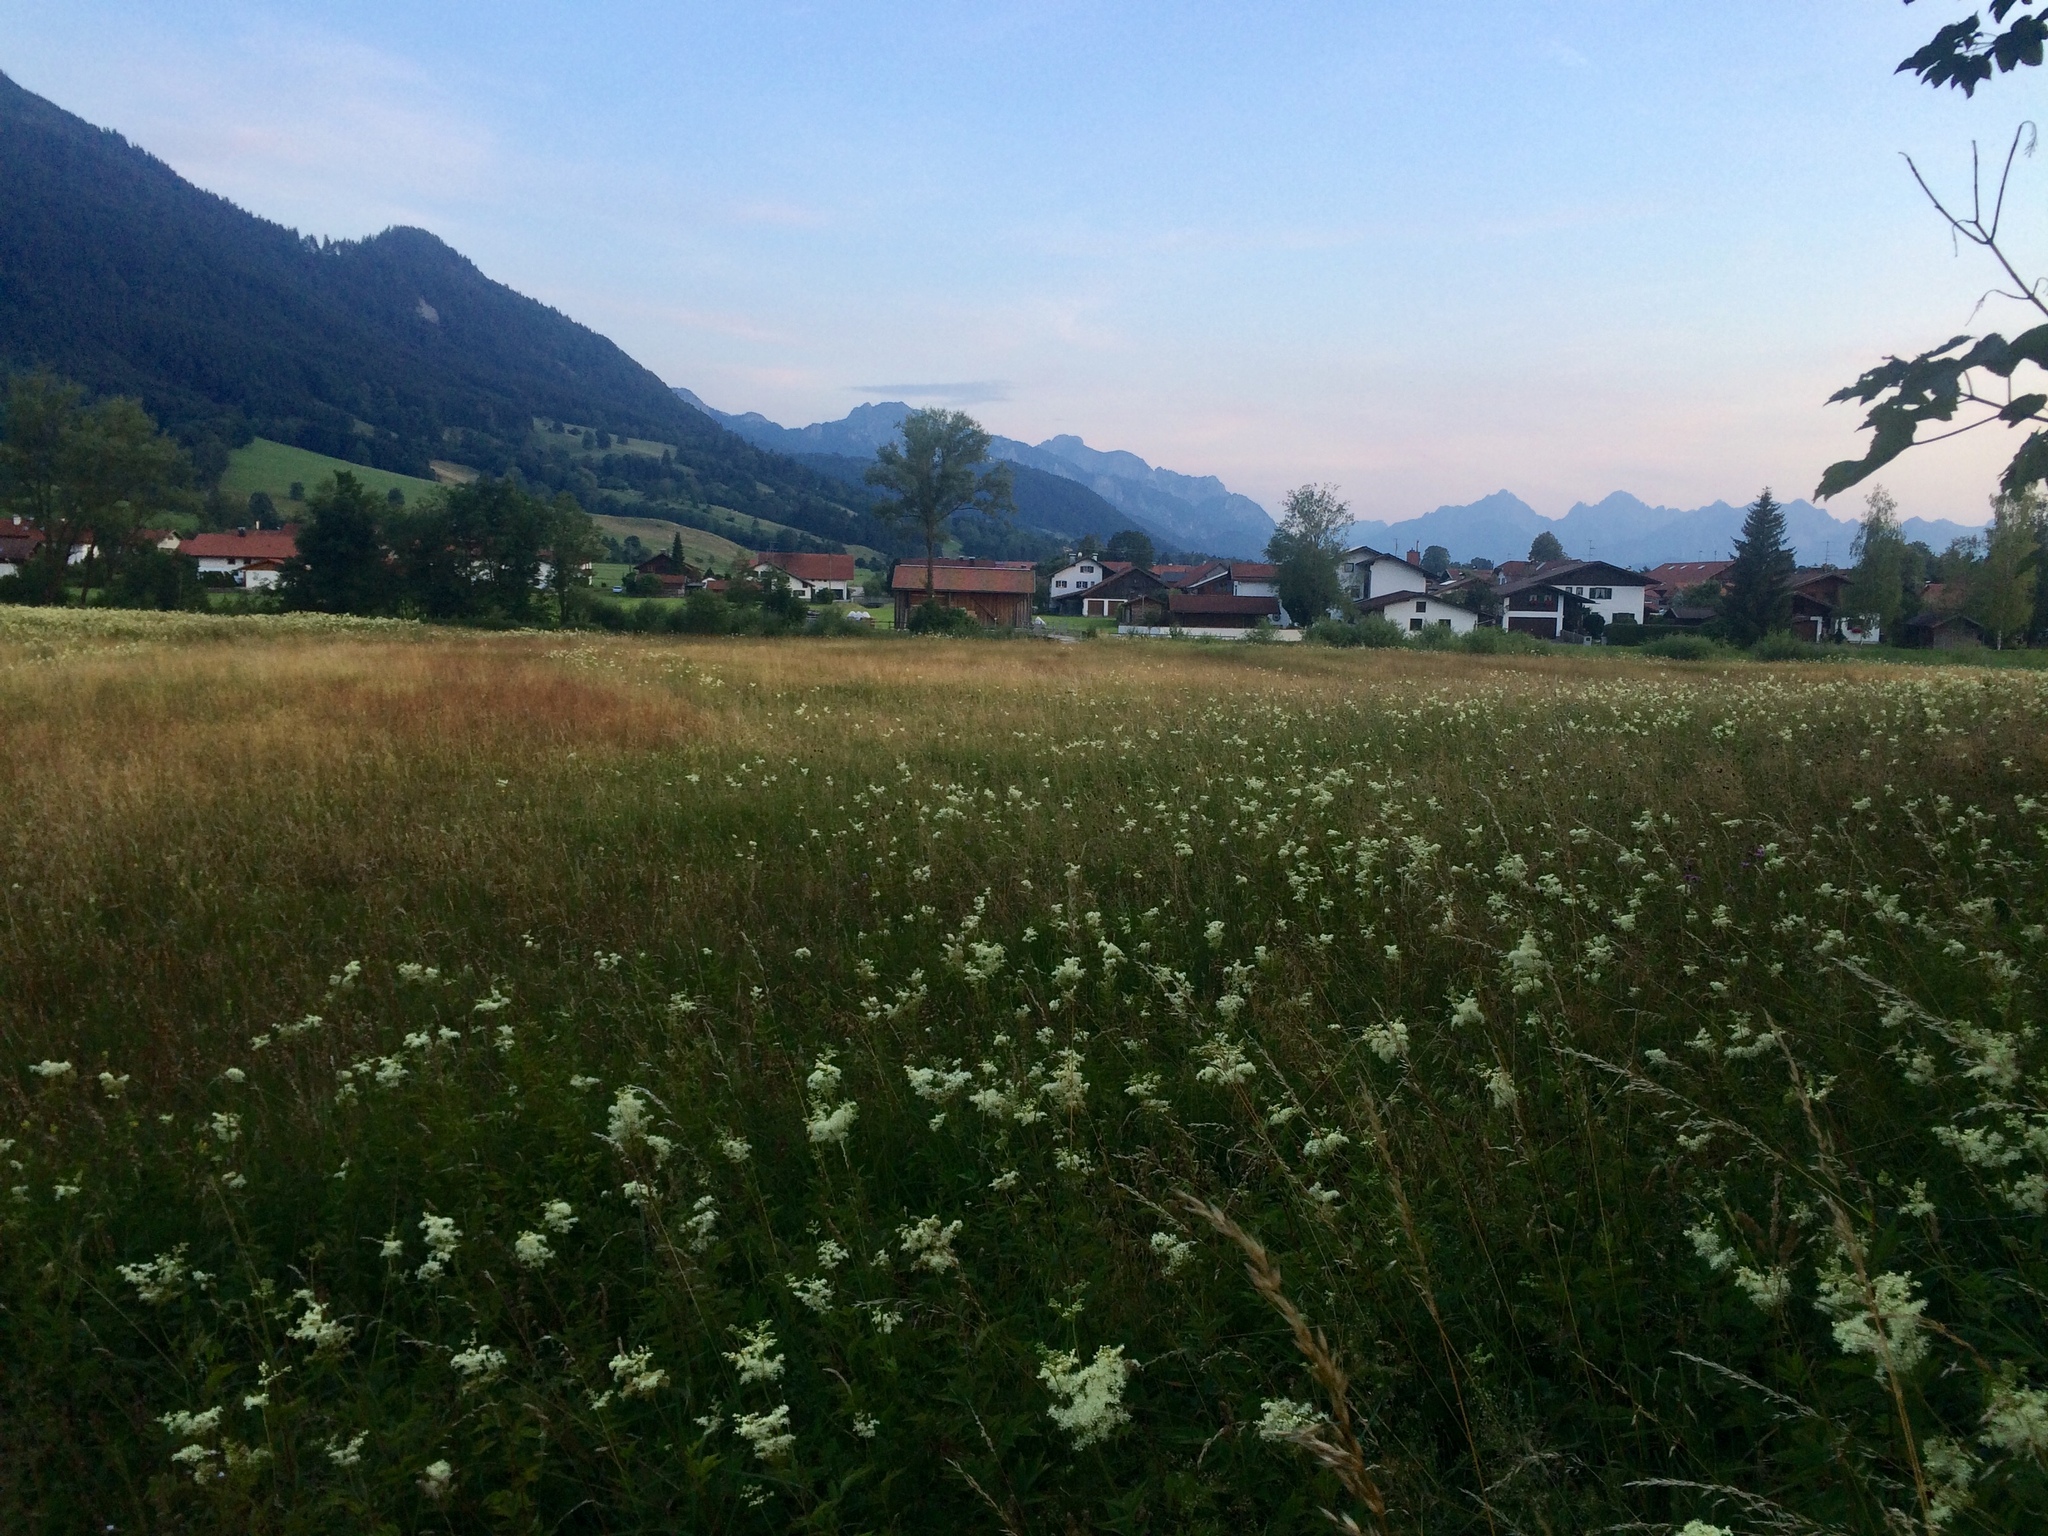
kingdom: Plantae
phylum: Tracheophyta
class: Magnoliopsida
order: Rosales
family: Rosaceae
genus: Filipendula
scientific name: Filipendula ulmaria
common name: Meadowsweet
